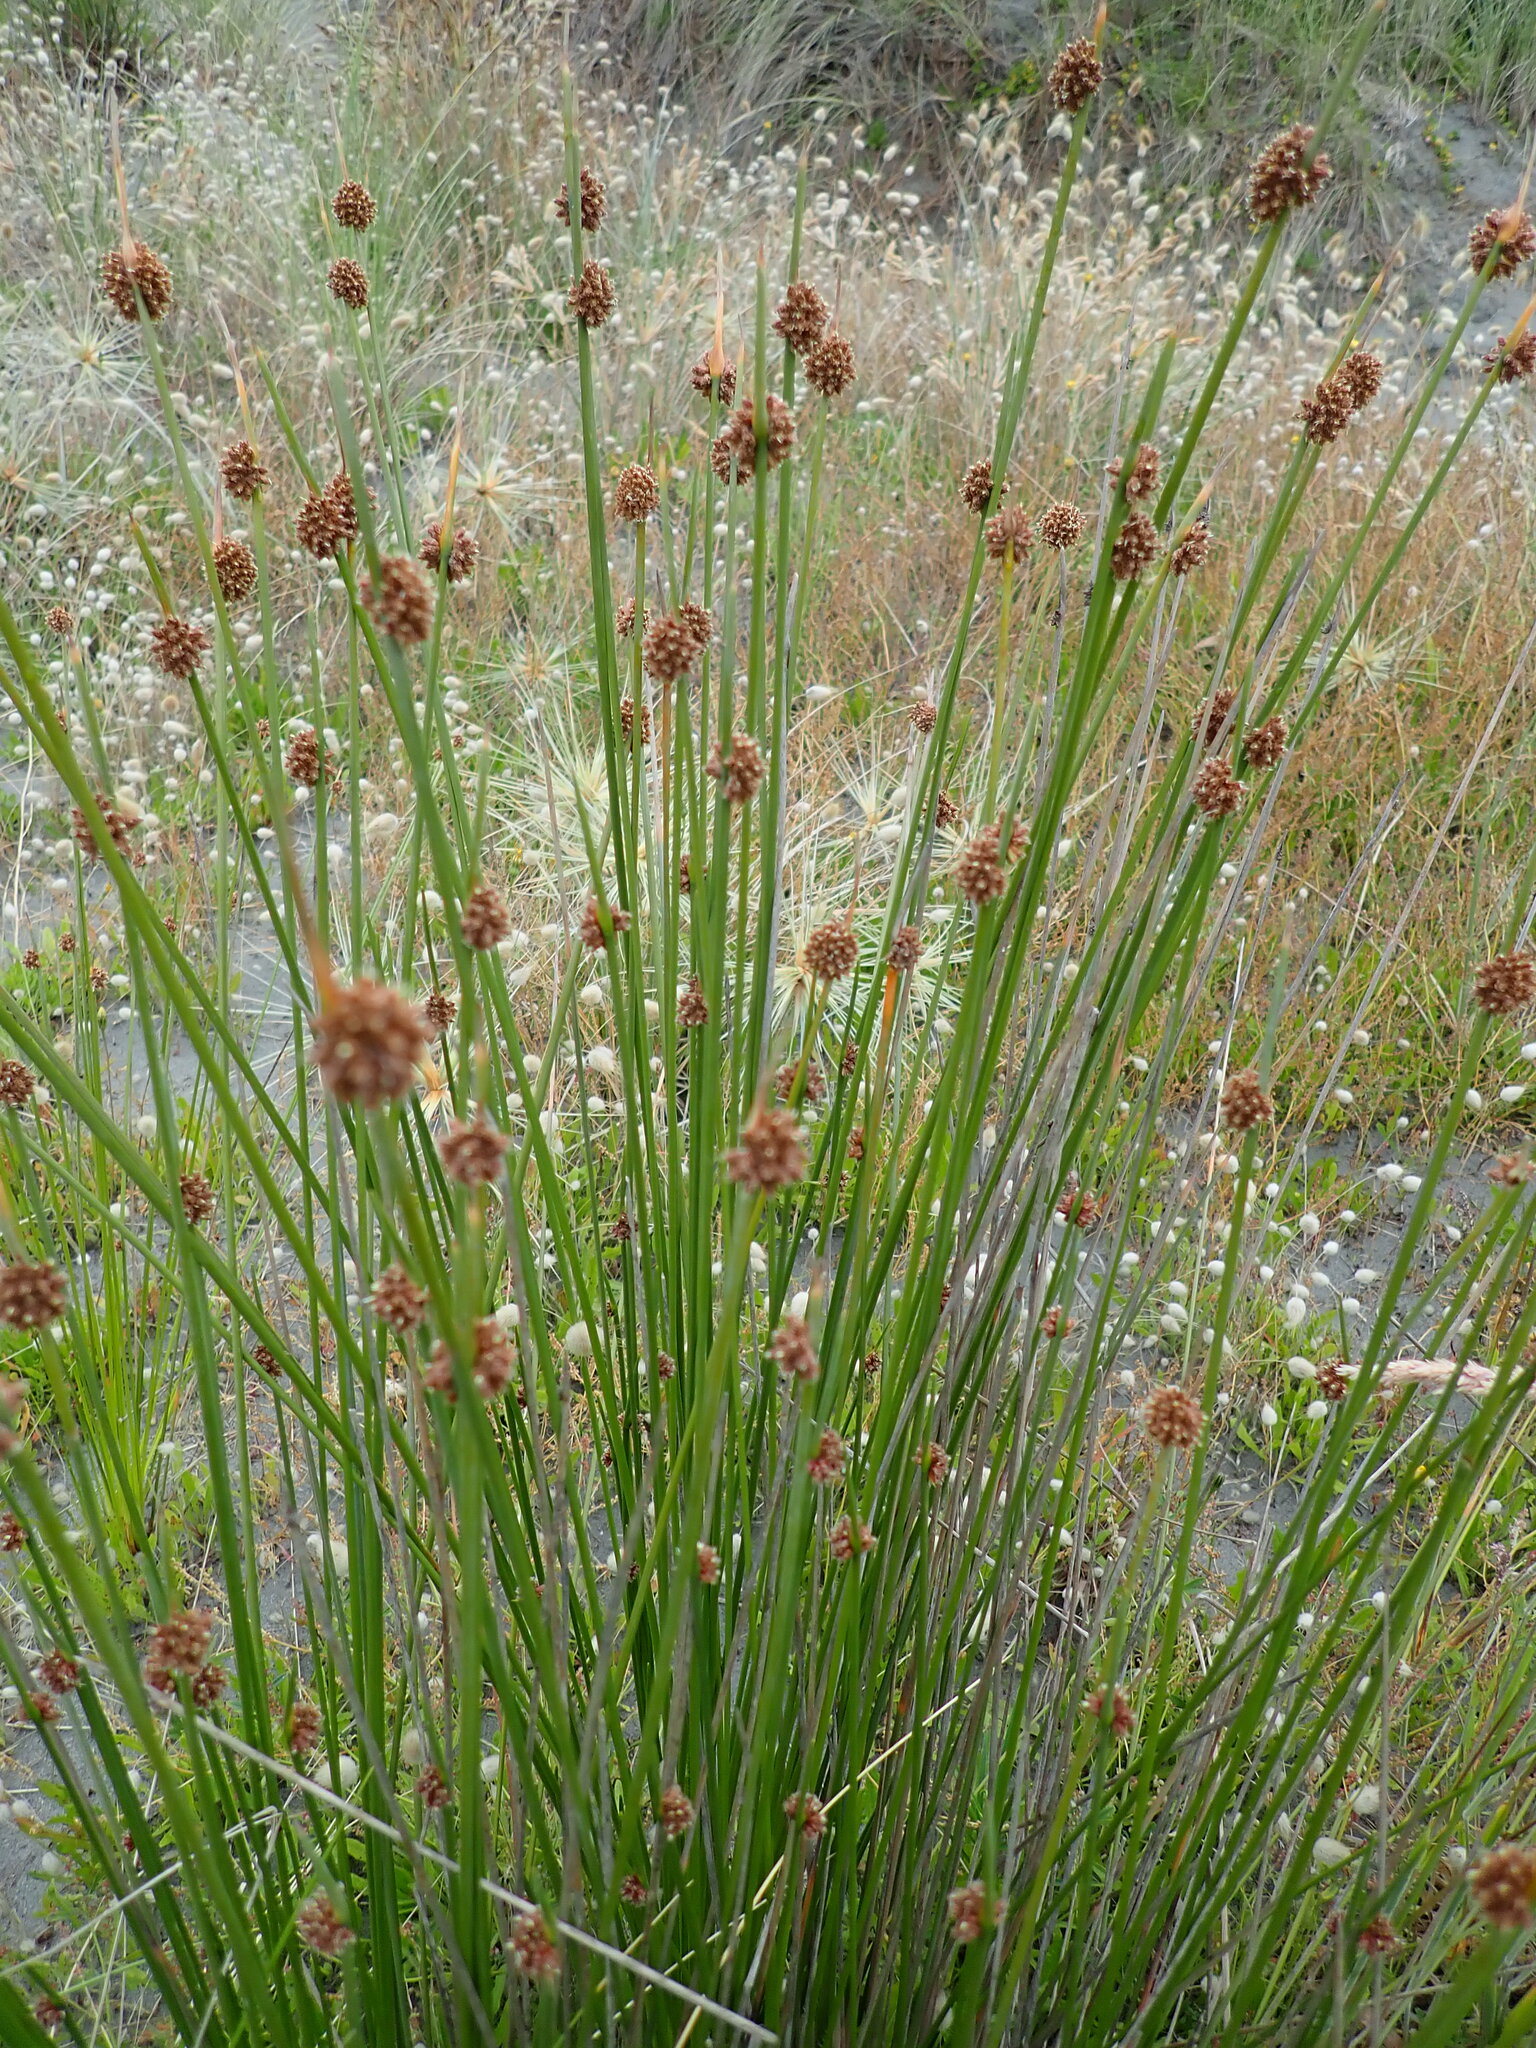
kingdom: Plantae
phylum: Tracheophyta
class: Liliopsida
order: Poales
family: Cyperaceae
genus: Ficinia
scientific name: Ficinia nodosa
